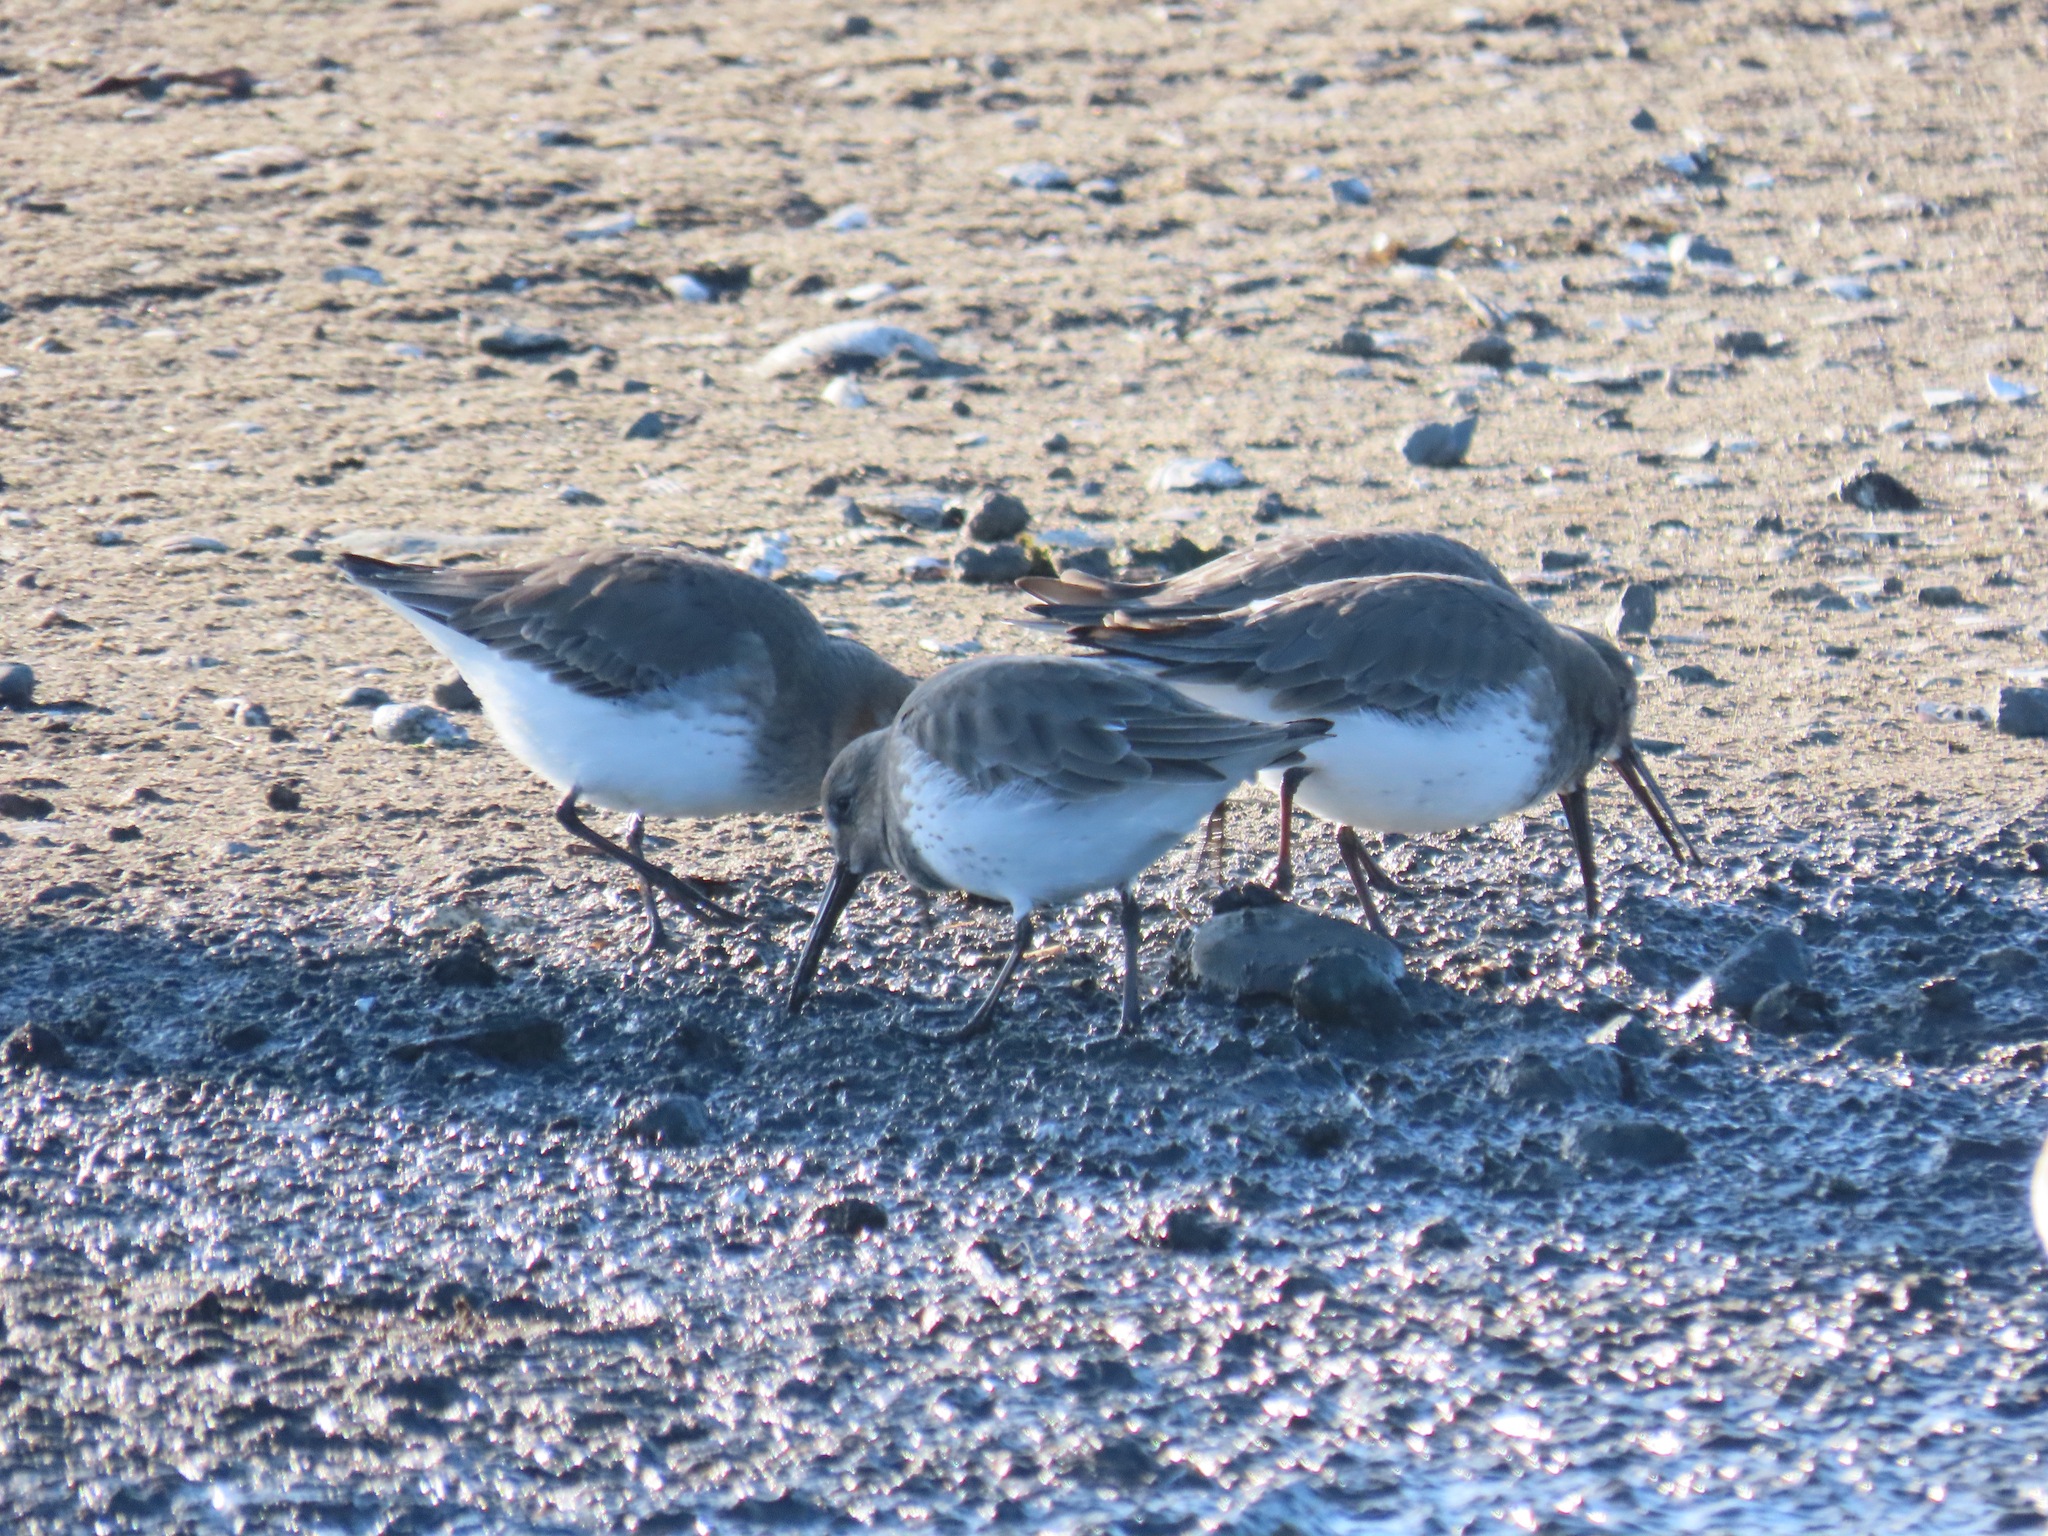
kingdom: Animalia
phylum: Chordata
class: Aves
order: Charadriiformes
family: Scolopacidae
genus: Calidris
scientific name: Calidris alpina
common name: Dunlin
